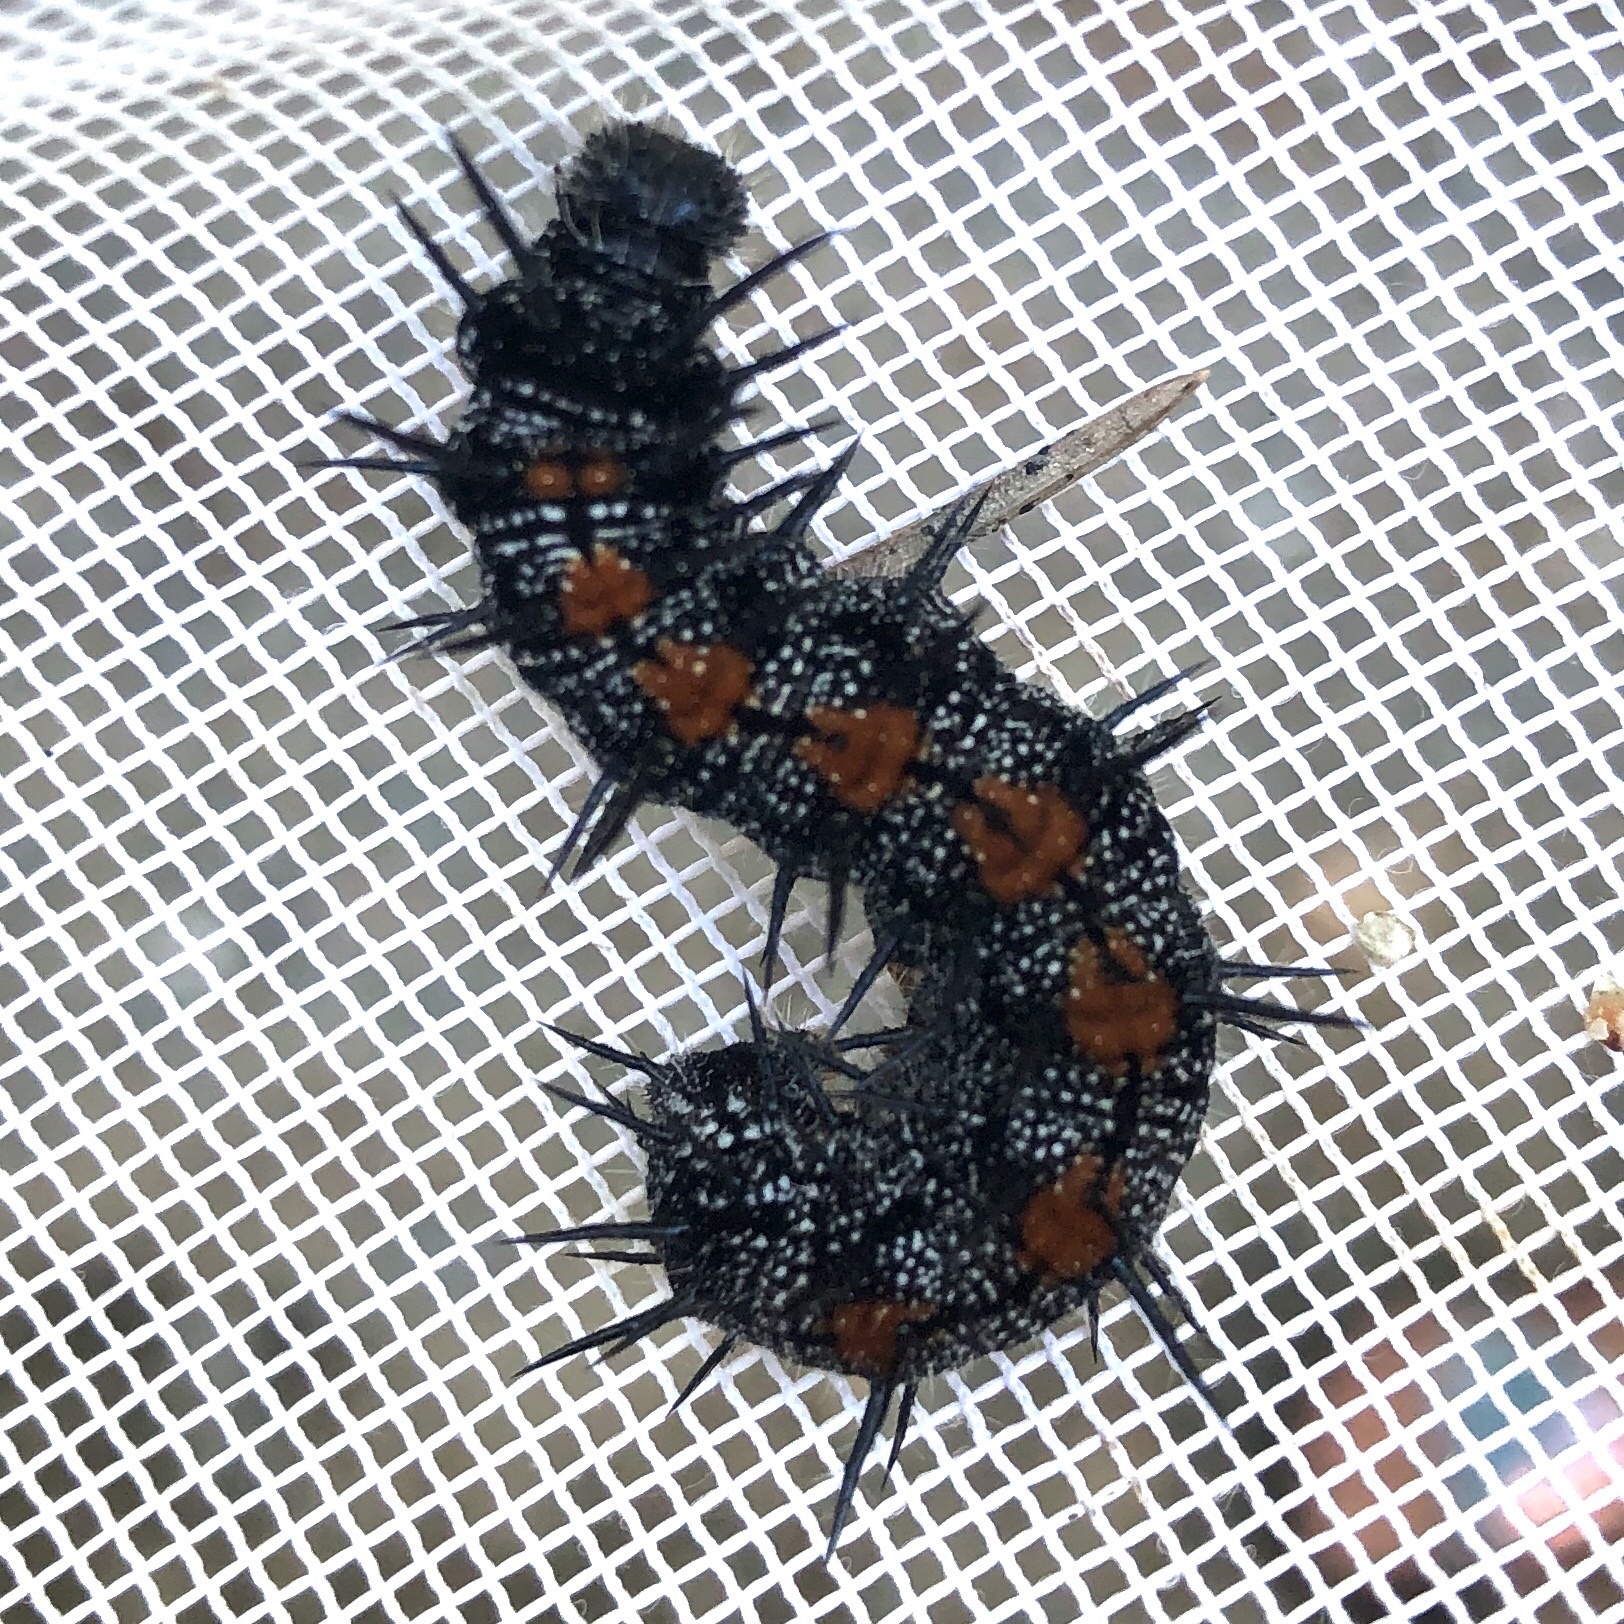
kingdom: Animalia
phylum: Arthropoda
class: Insecta
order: Lepidoptera
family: Nymphalidae
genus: Nymphalis
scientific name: Nymphalis antiopa
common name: Camberwell beauty
